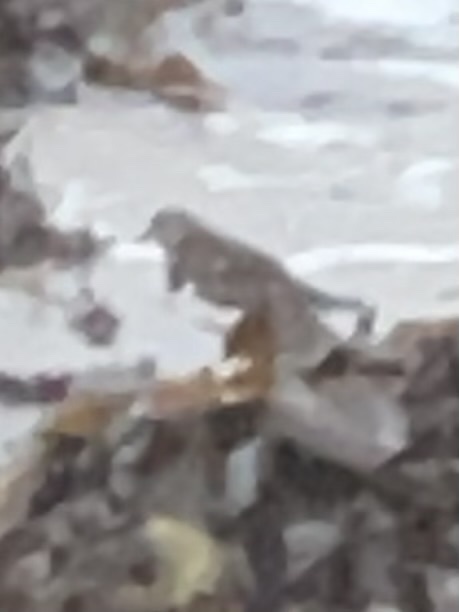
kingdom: Animalia
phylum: Chordata
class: Aves
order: Charadriiformes
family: Scolopacidae
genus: Arenaria
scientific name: Arenaria interpres
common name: Ruddy turnstone
